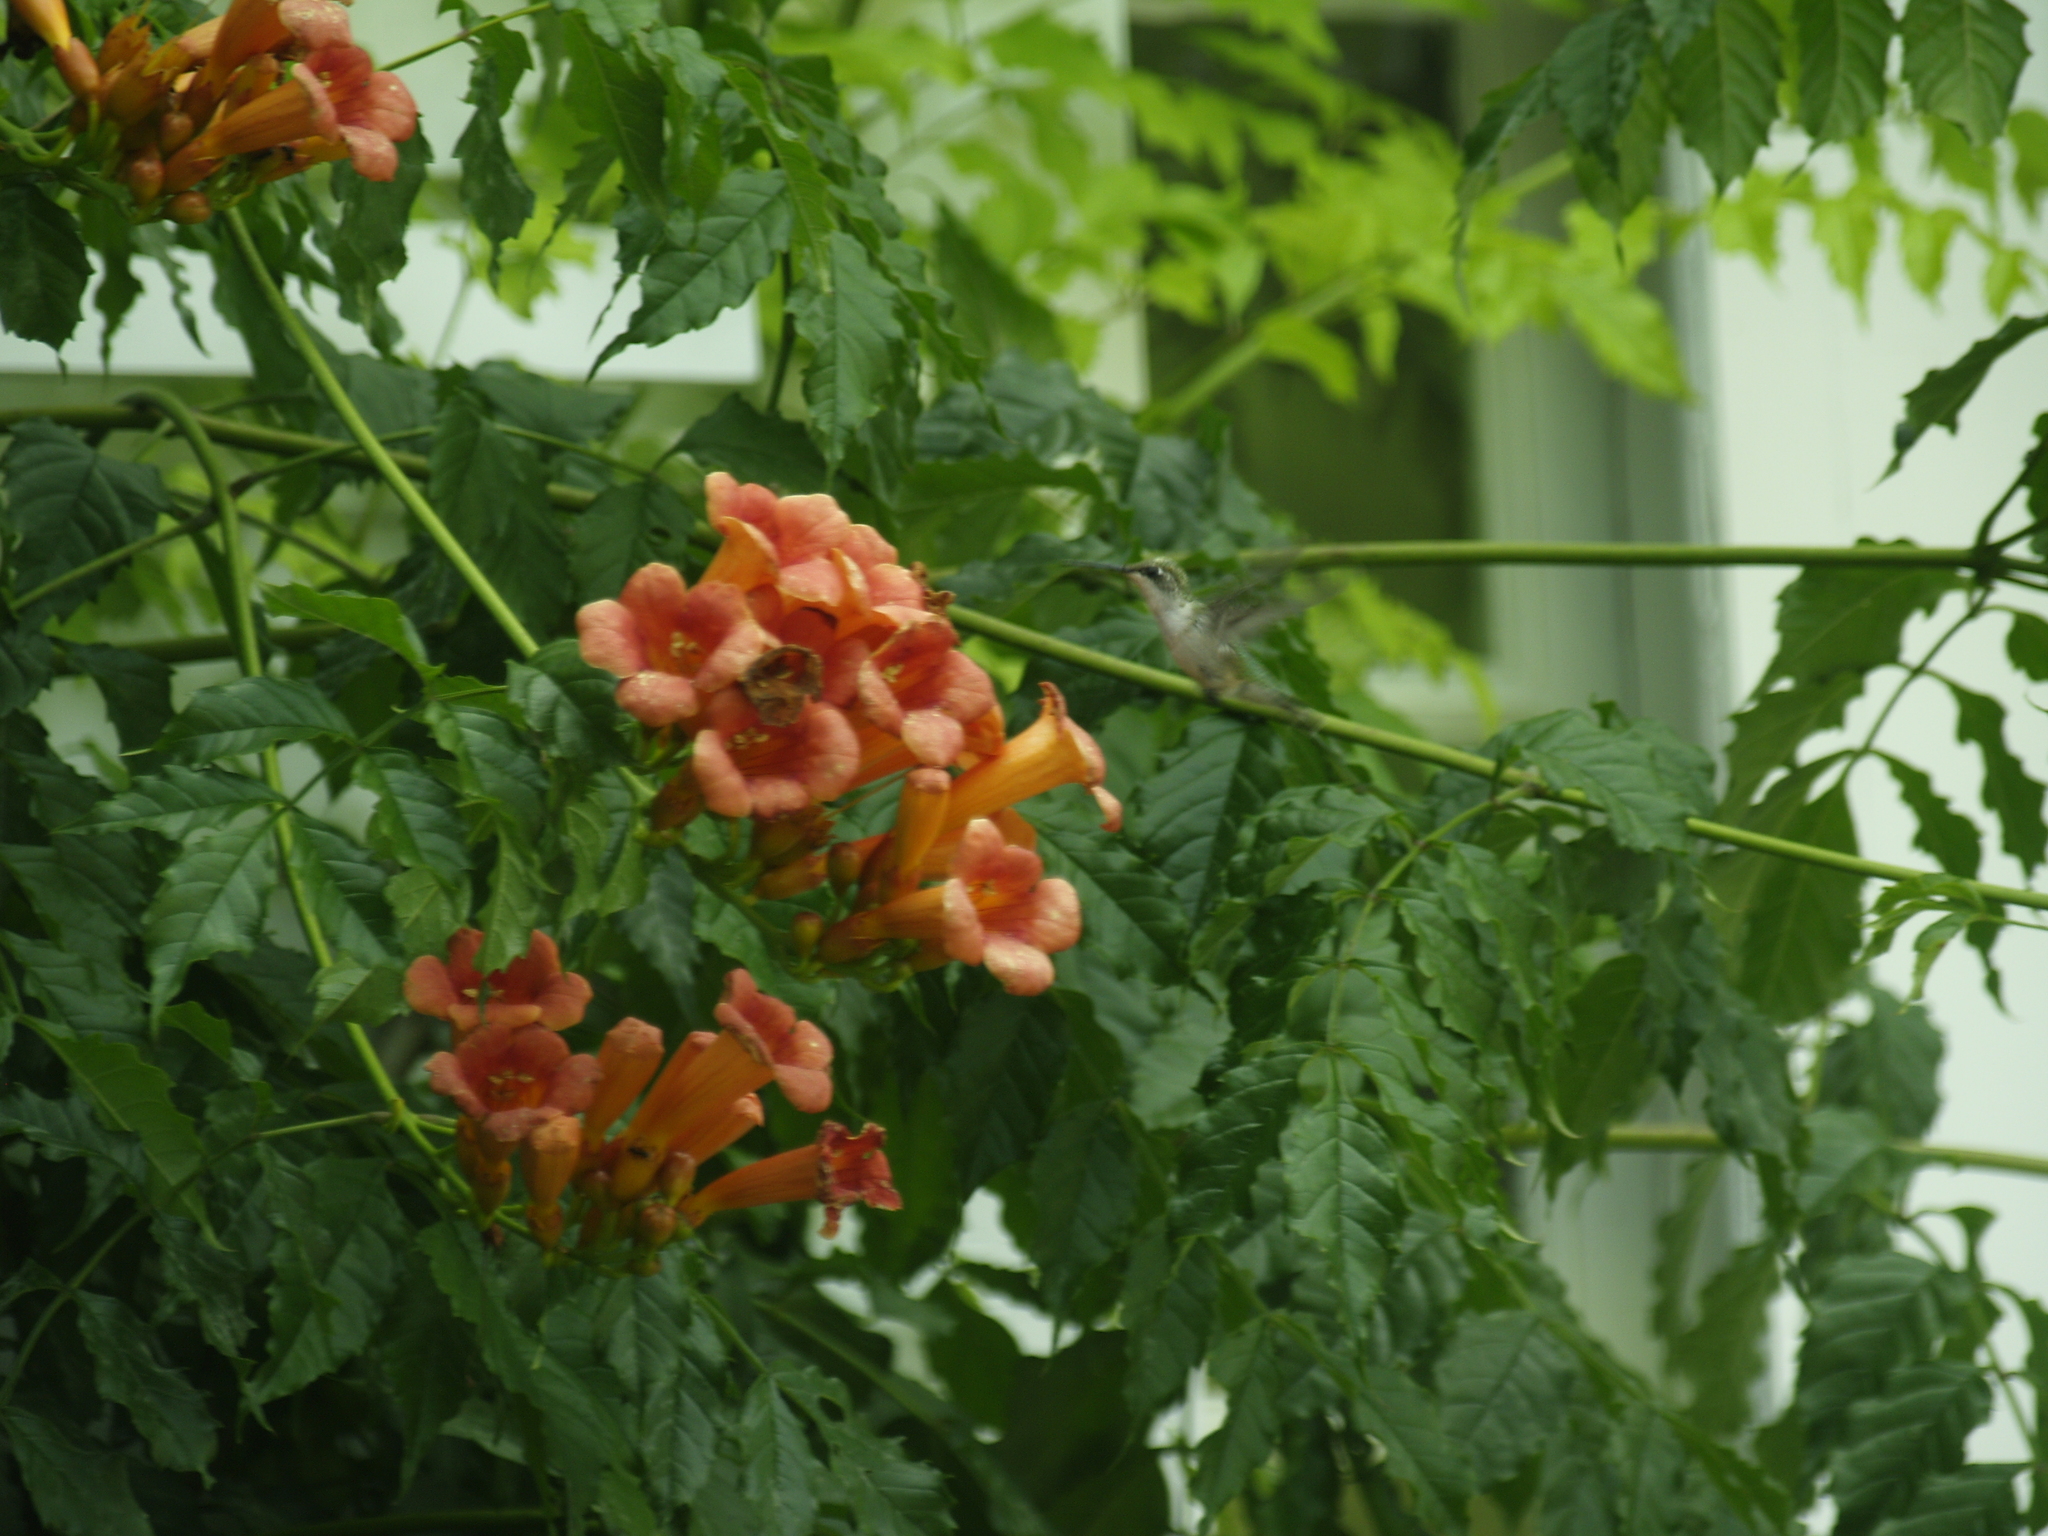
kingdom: Animalia
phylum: Chordata
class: Aves
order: Apodiformes
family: Trochilidae
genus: Archilochus
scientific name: Archilochus colubris
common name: Ruby-throated hummingbird
